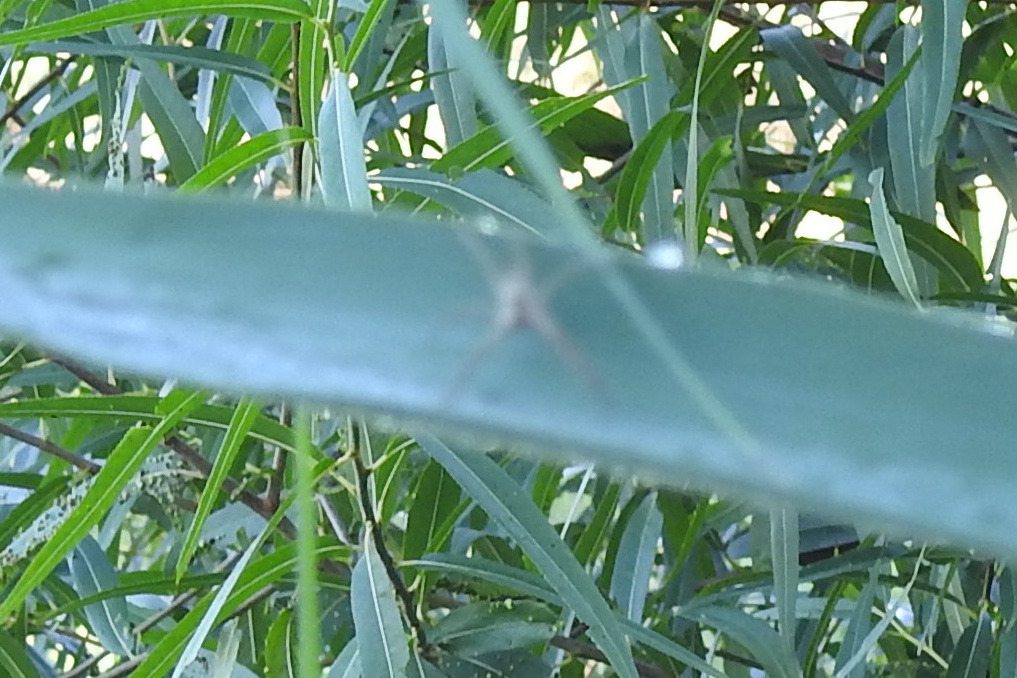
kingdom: Animalia
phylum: Arthropoda
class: Arachnida
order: Araneae
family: Pisauridae
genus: Pisaurina
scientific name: Pisaurina mira
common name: American nursery web spider
